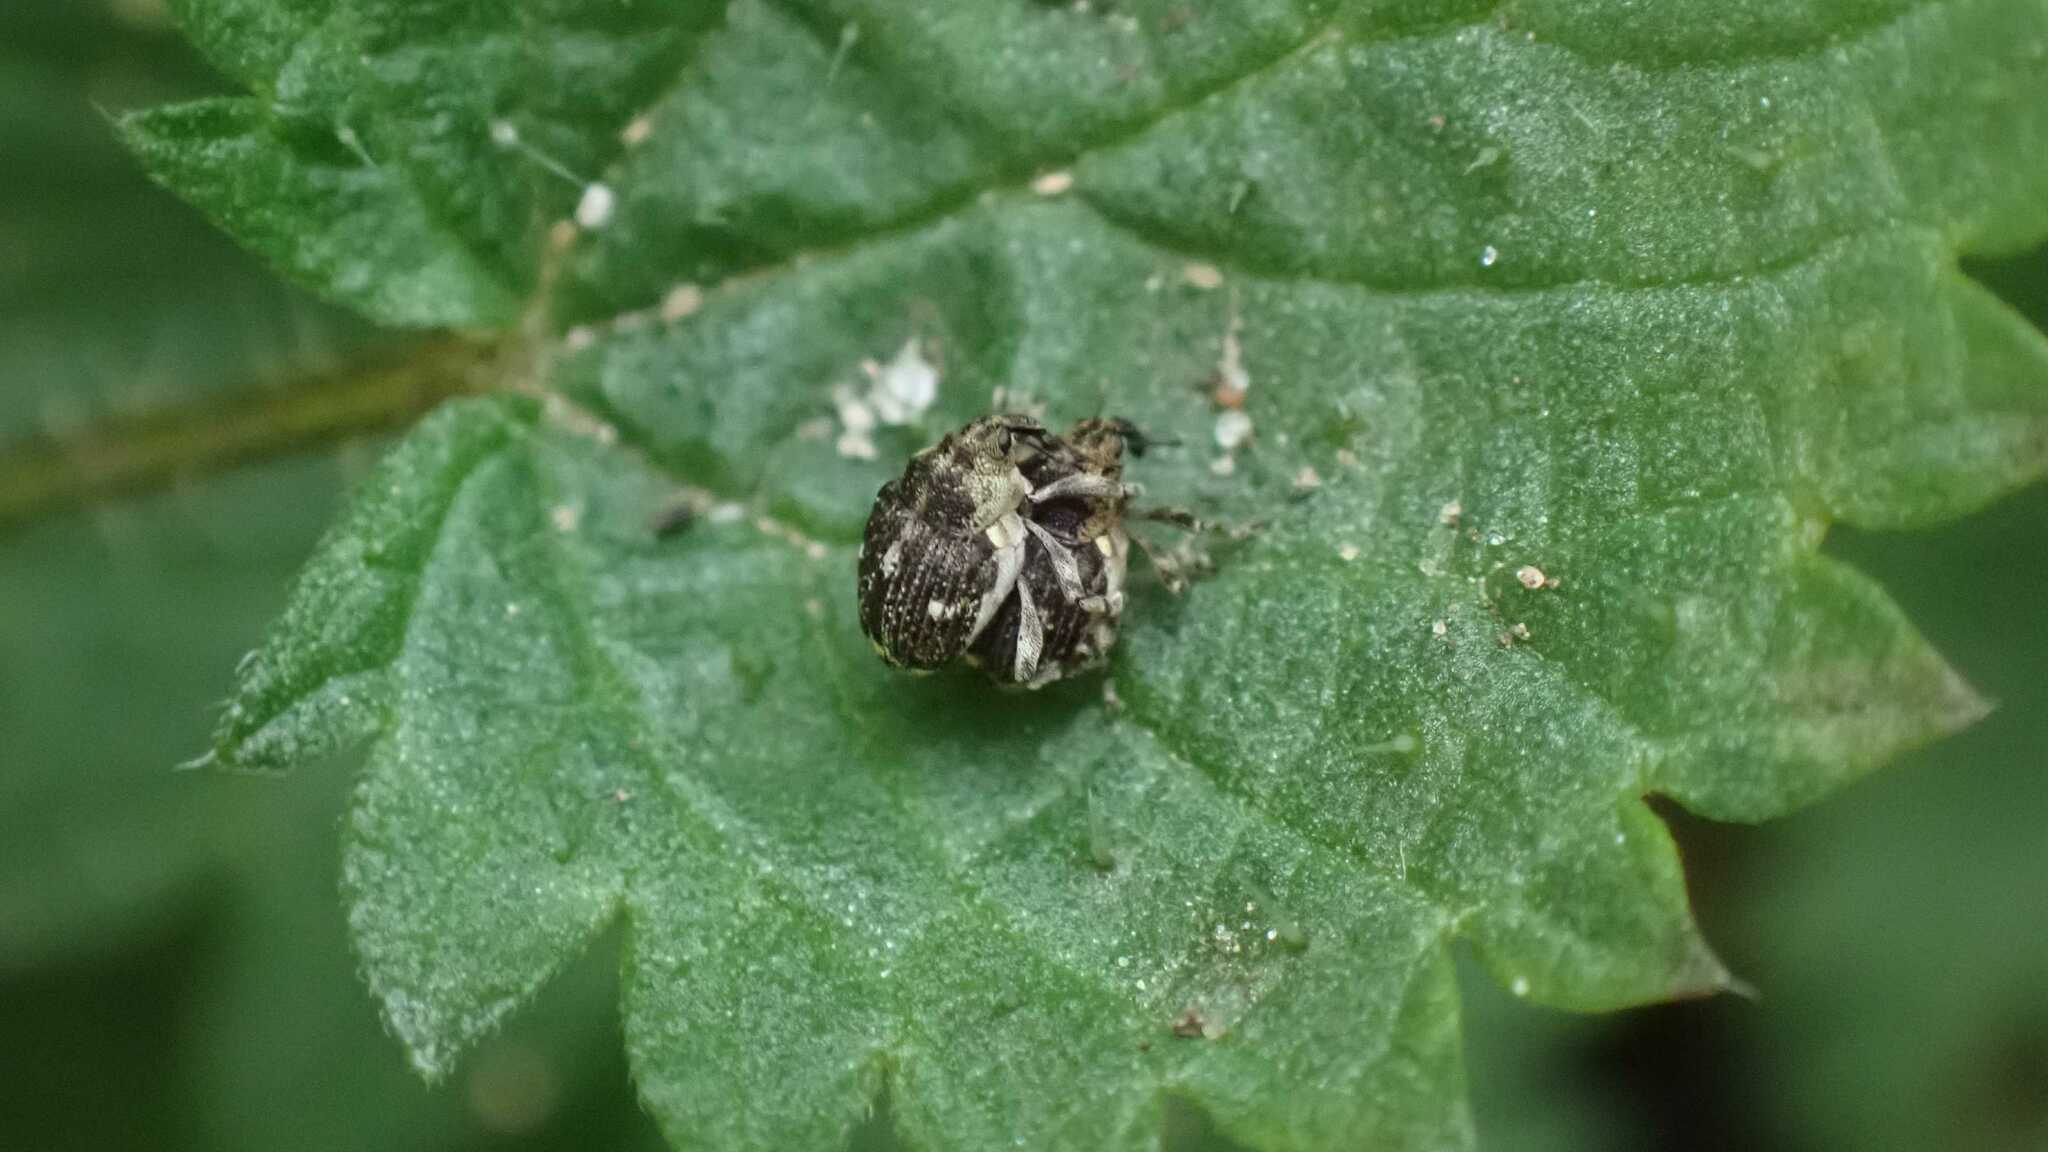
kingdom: Animalia
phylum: Arthropoda
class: Insecta
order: Coleoptera
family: Curculionidae
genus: Nedyus
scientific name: Nedyus quadrimaculatus
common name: Small nettle weevil
